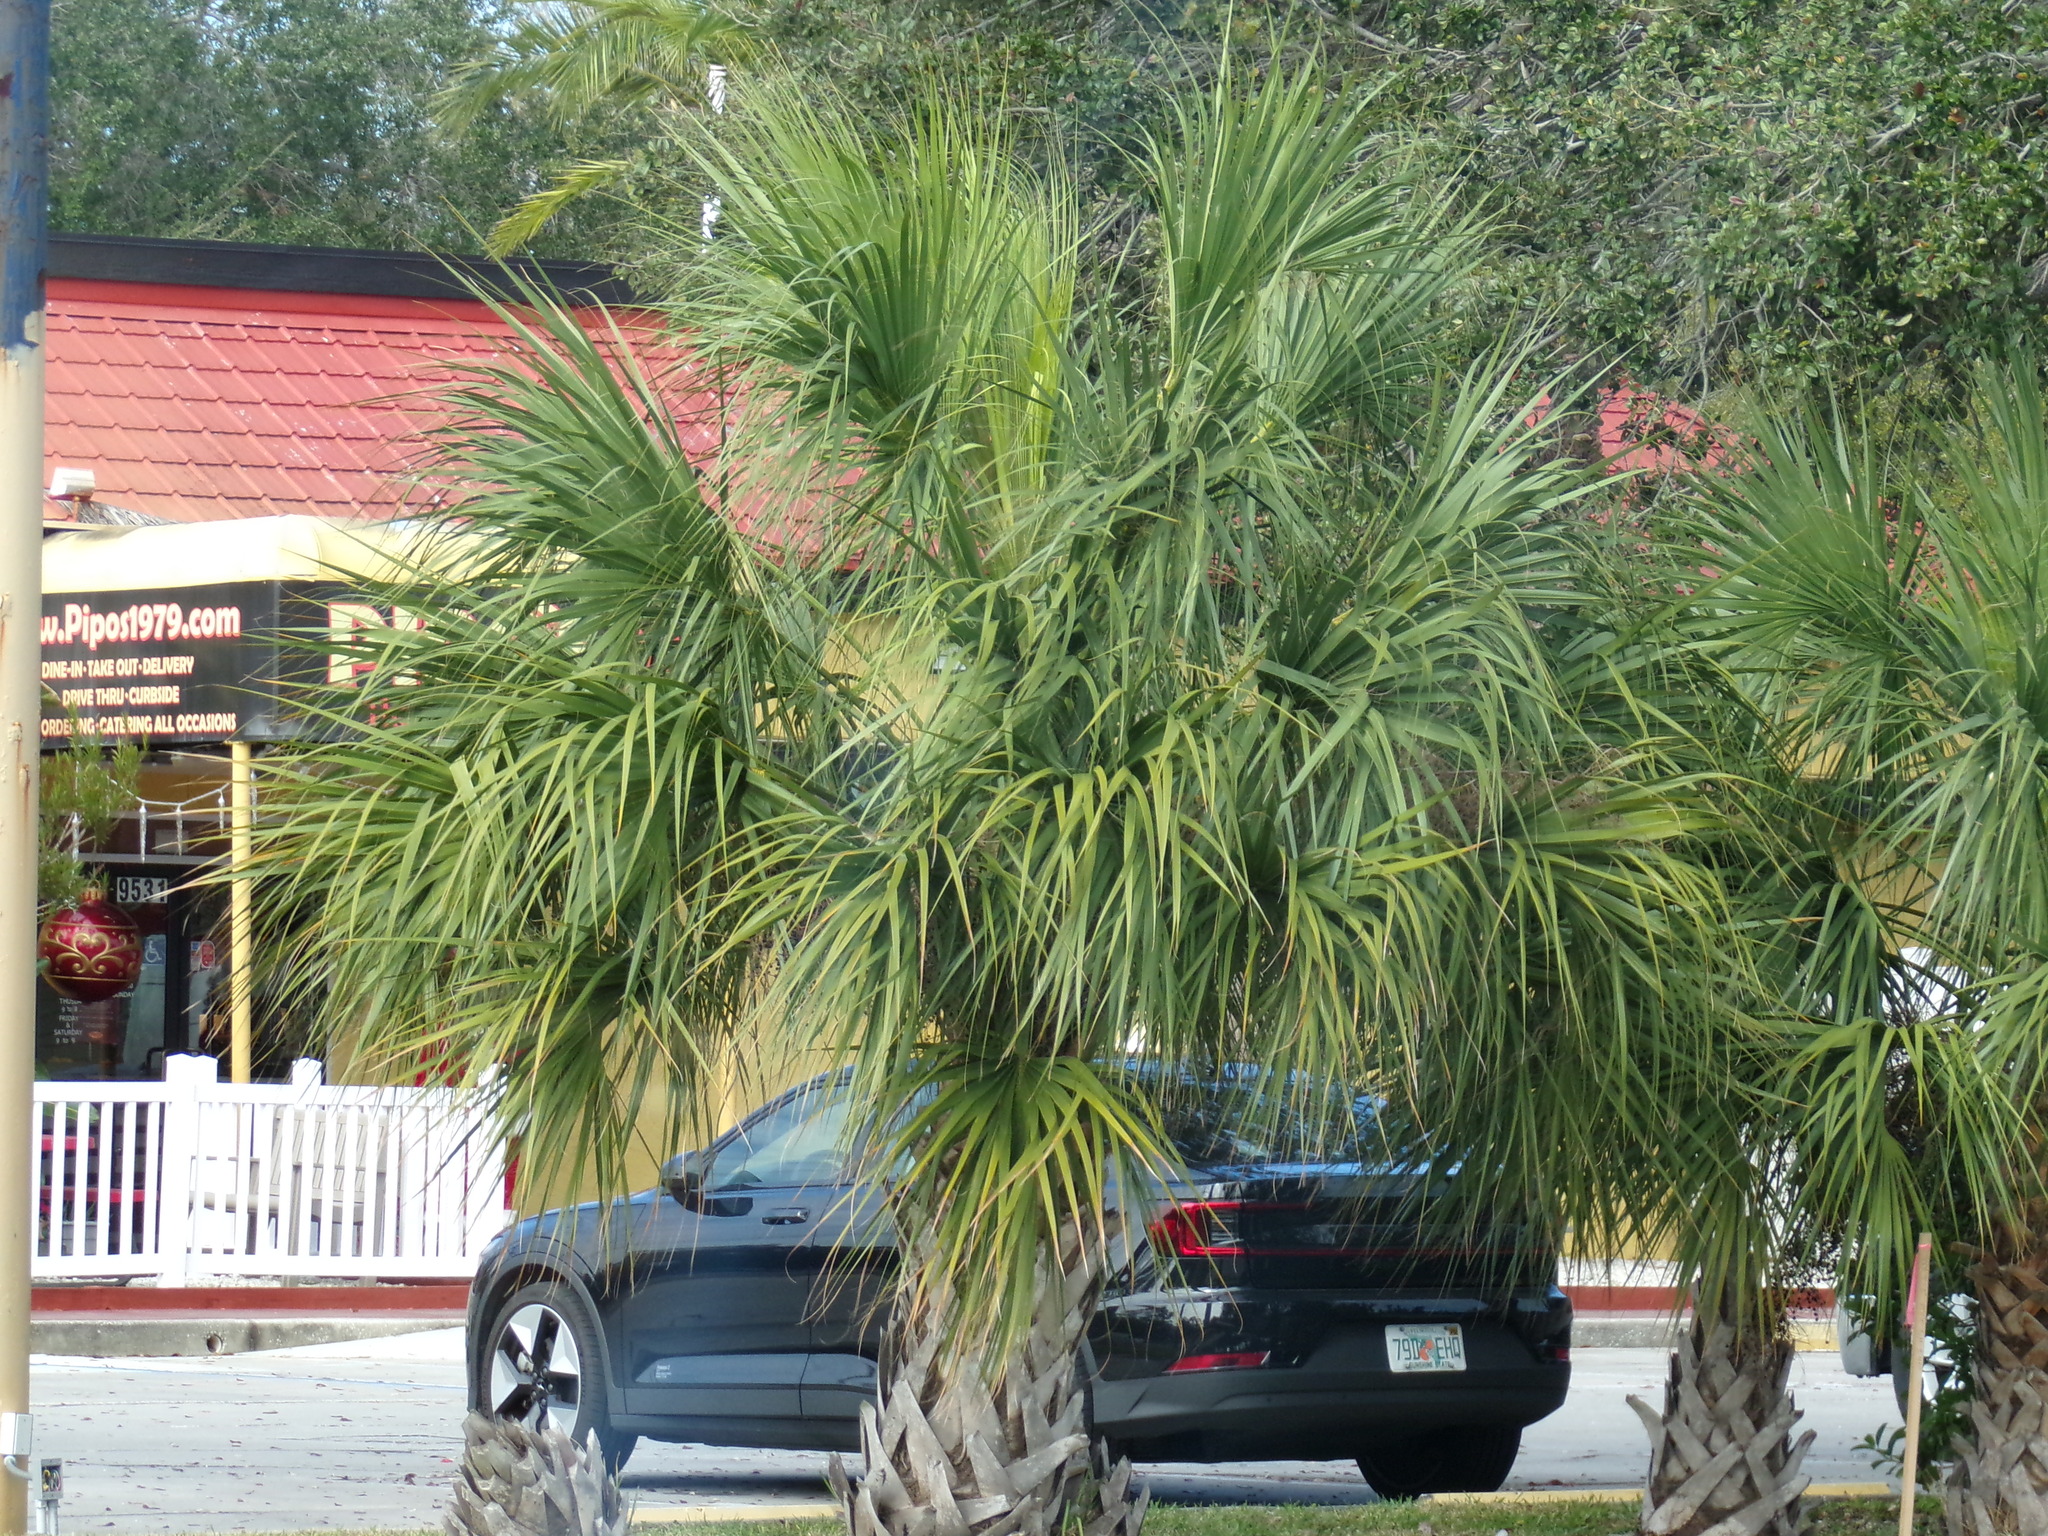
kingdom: Plantae
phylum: Tracheophyta
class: Liliopsida
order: Arecales
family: Arecaceae
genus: Sabal
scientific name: Sabal palmetto
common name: Blue palmetto
